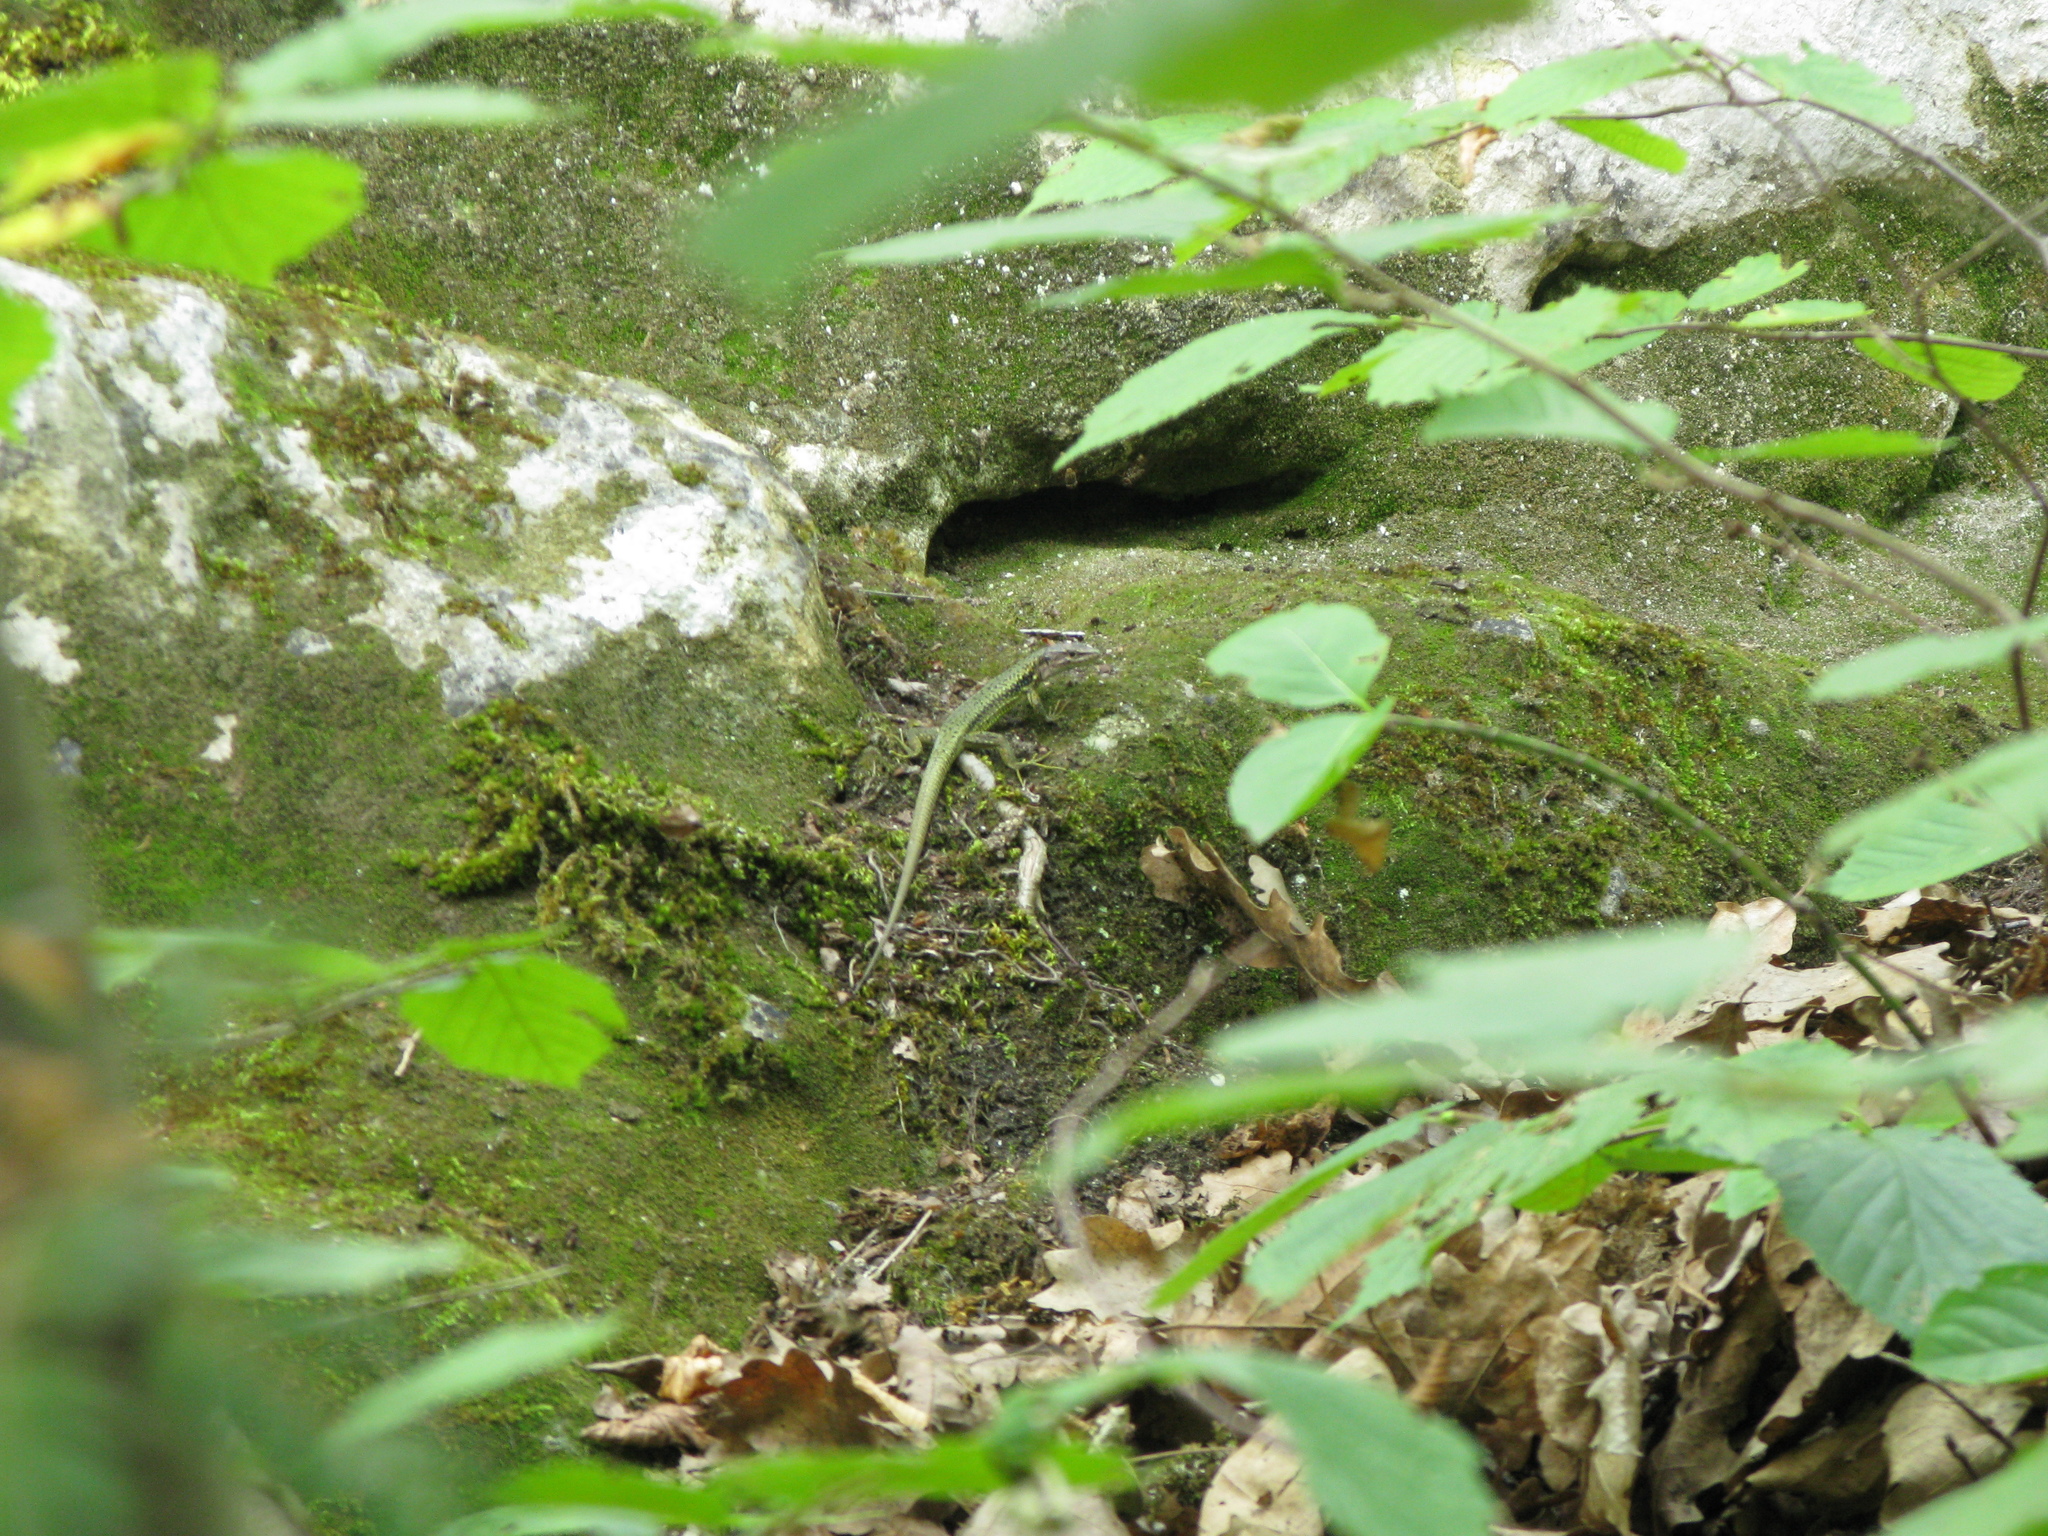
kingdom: Animalia
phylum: Chordata
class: Squamata
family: Lacertidae
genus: Darevskia
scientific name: Darevskia lindholmi
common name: Crimean rock lizard
